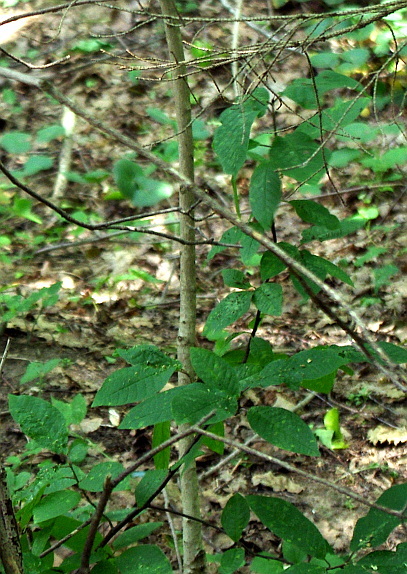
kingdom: Plantae
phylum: Tracheophyta
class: Magnoliopsida
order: Rosales
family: Rosaceae
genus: Prunus
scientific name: Prunus padus
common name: Bird cherry
